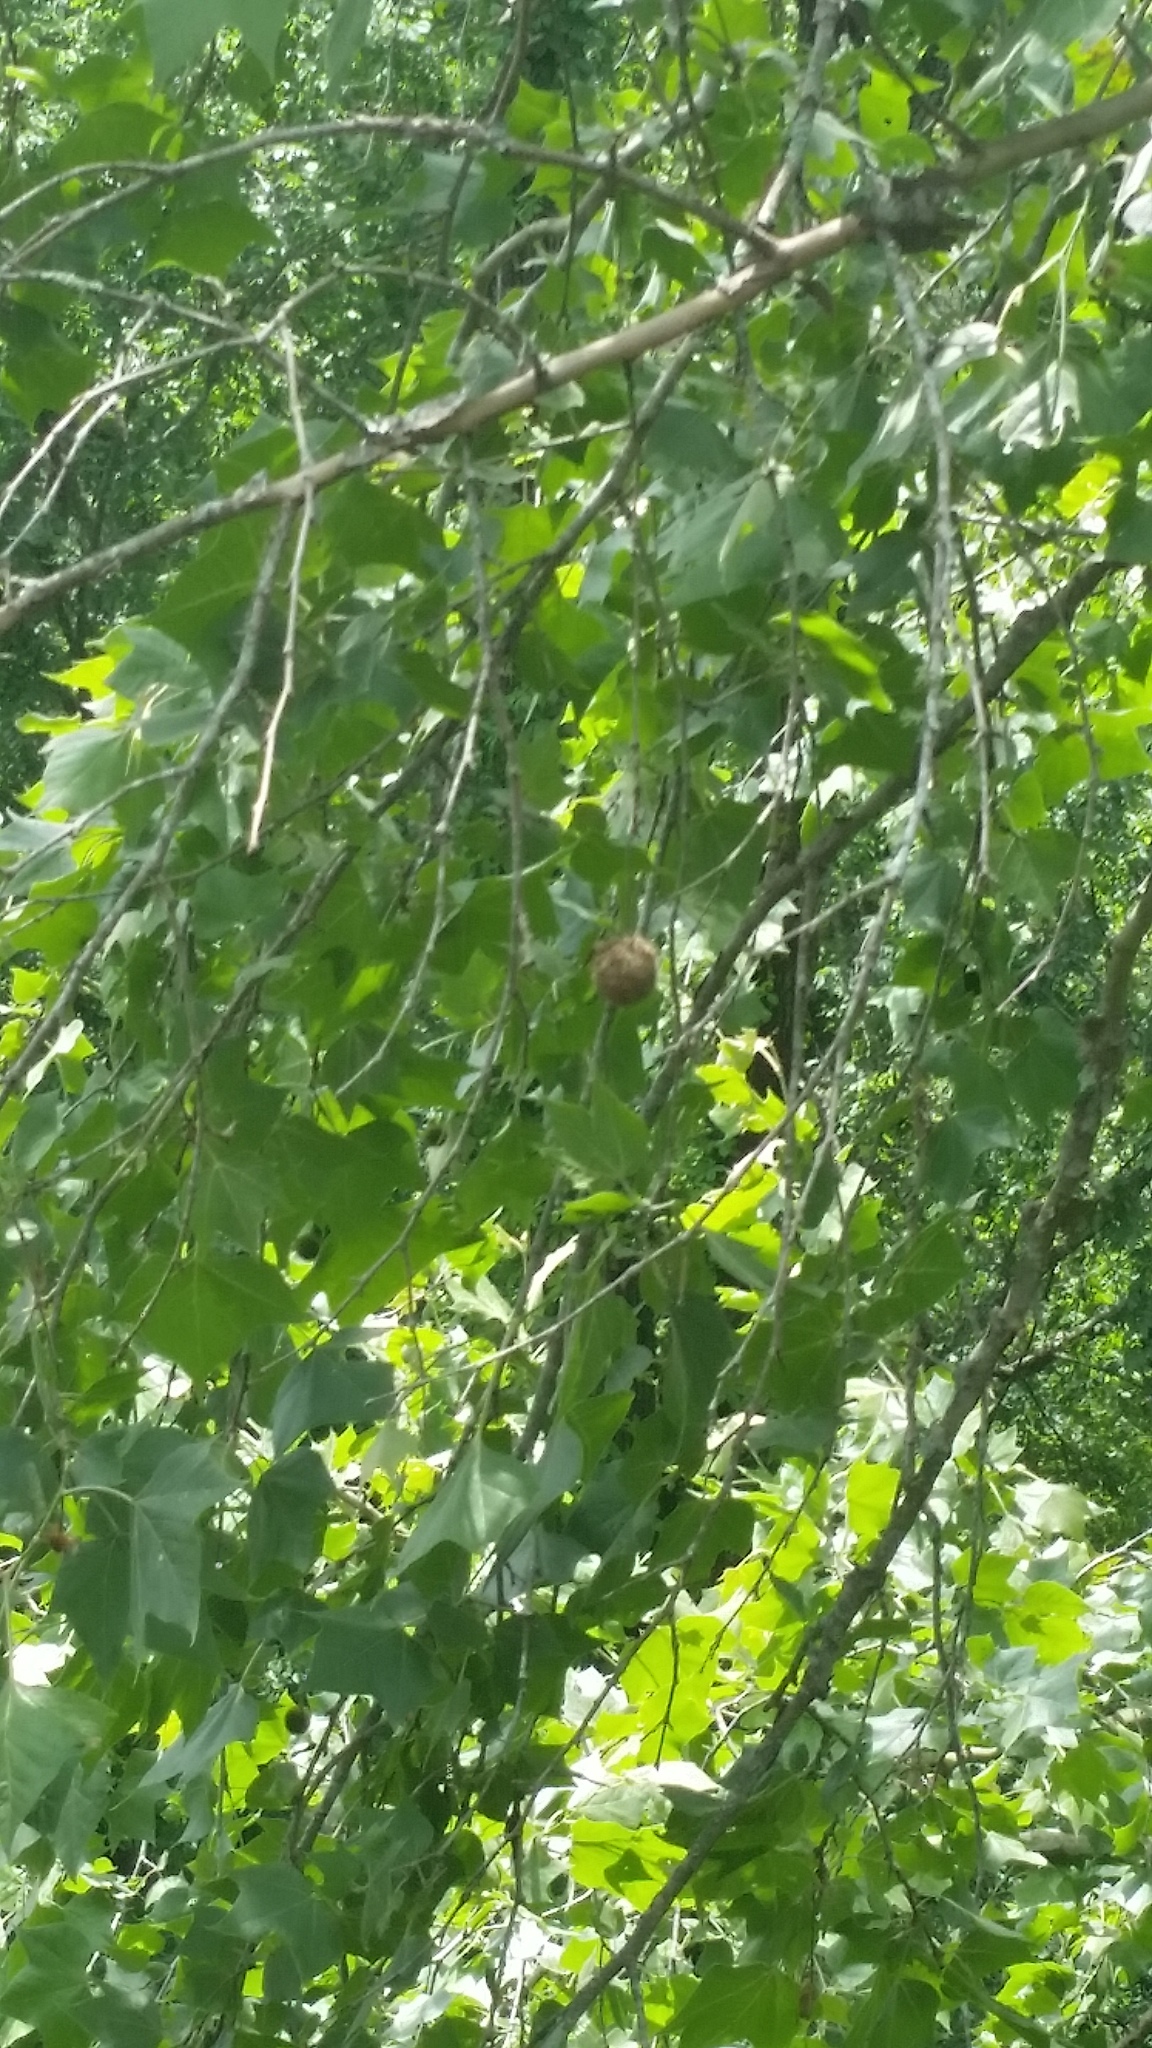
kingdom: Plantae
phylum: Tracheophyta
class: Magnoliopsida
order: Proteales
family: Platanaceae
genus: Platanus
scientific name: Platanus occidentalis
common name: American sycamore
